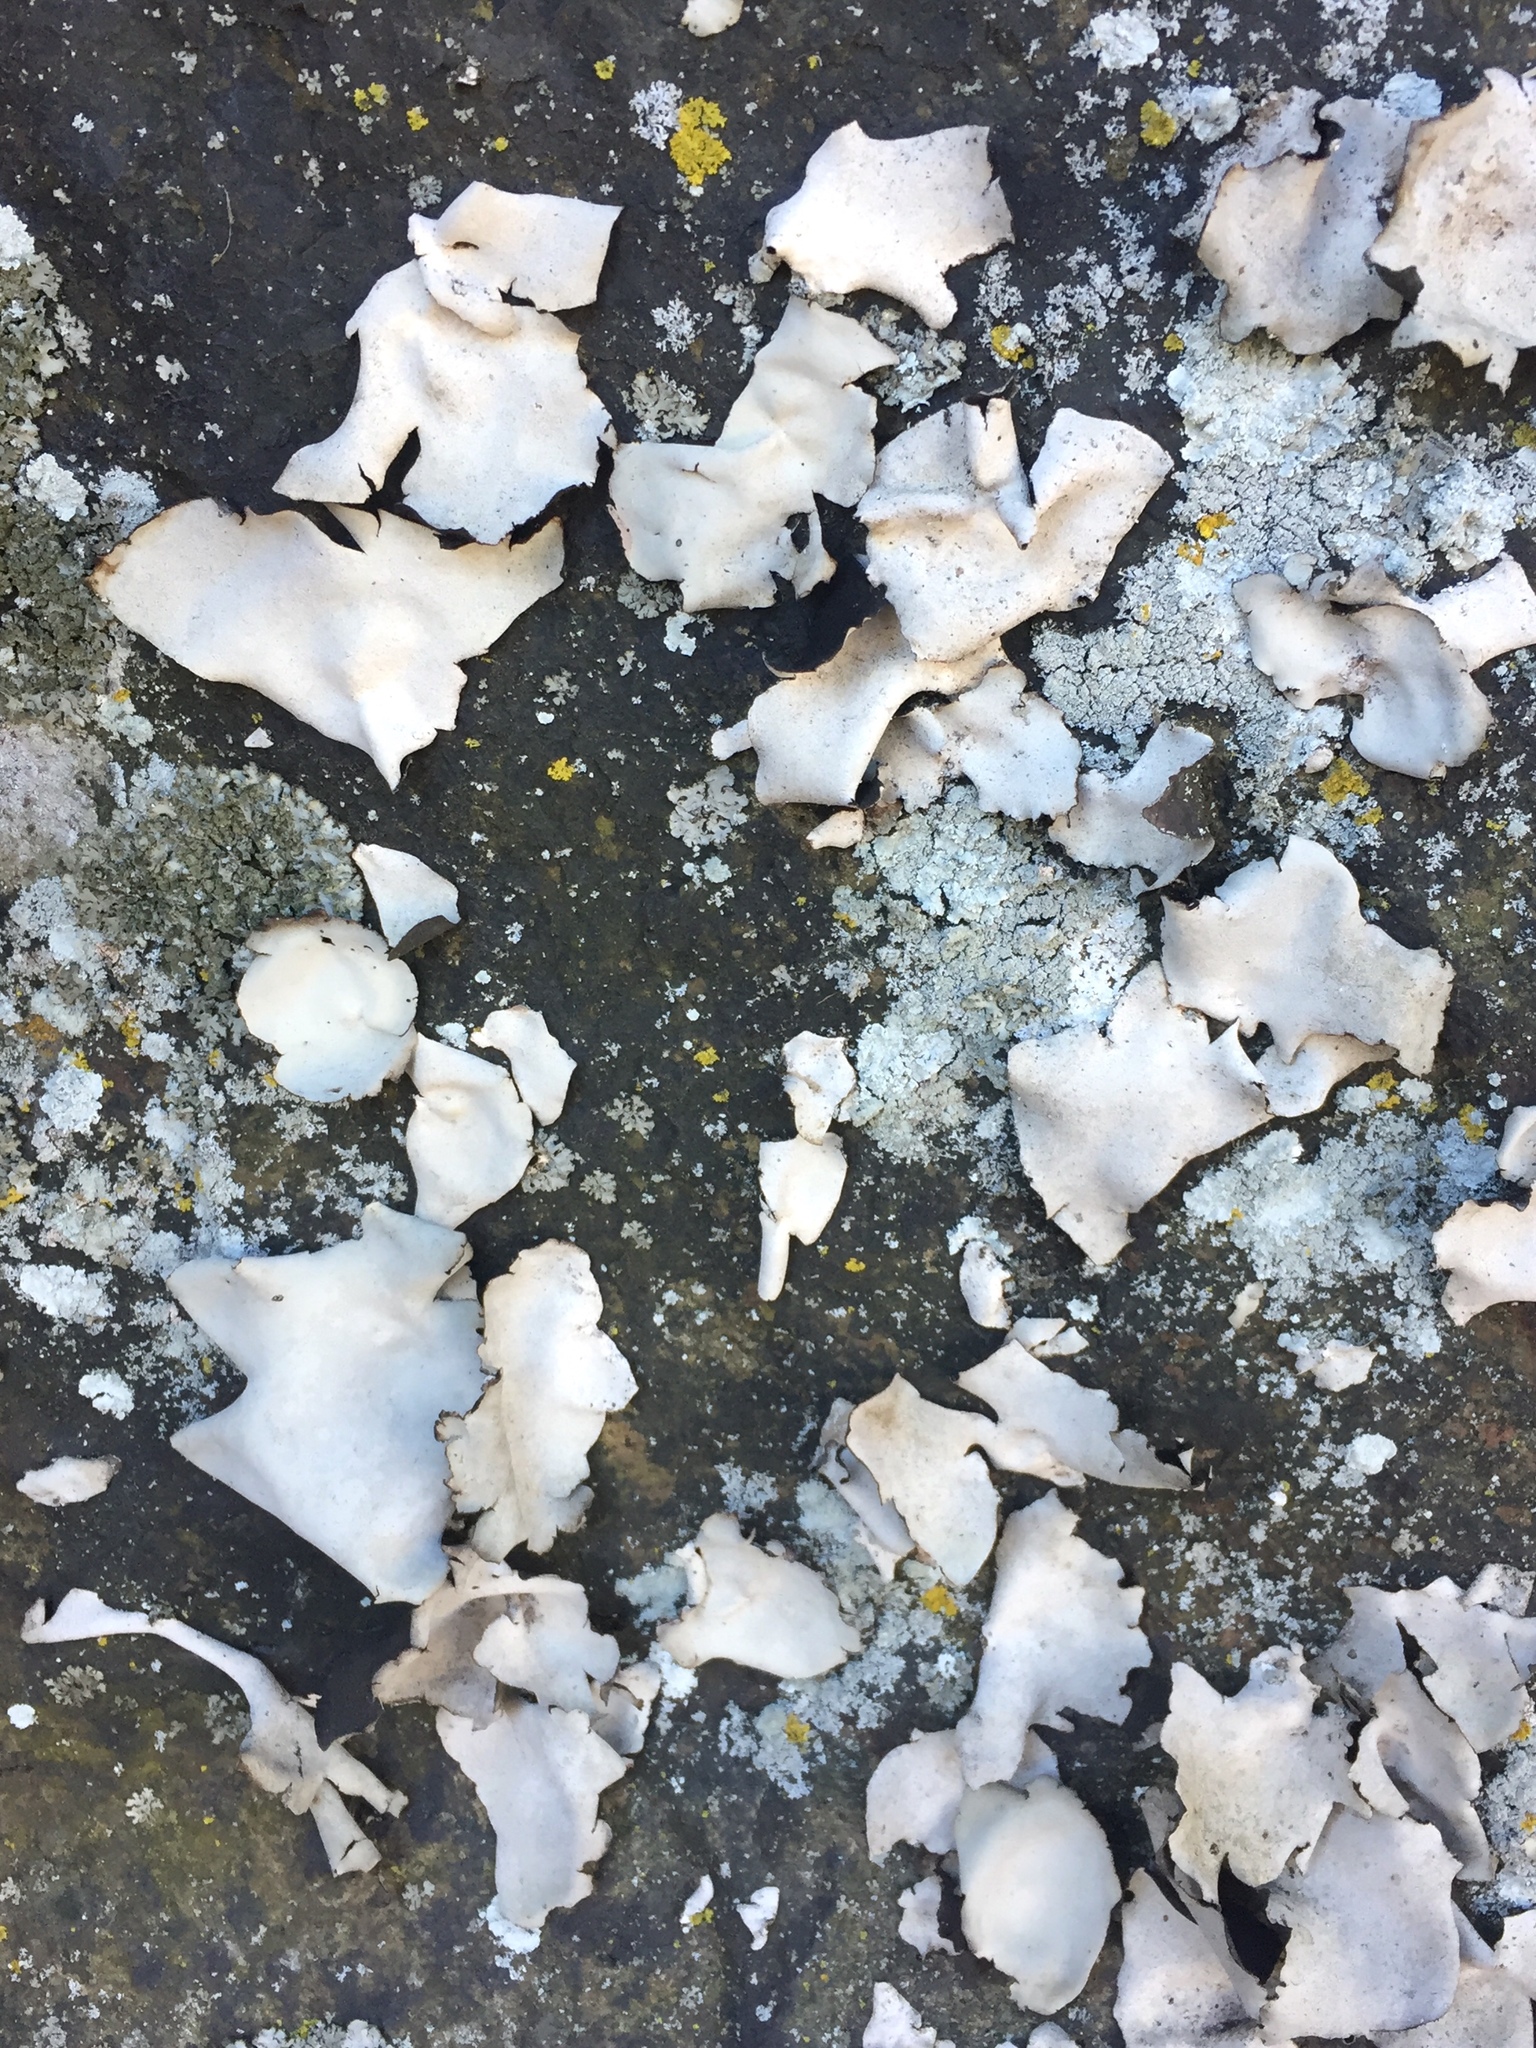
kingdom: Fungi
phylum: Ascomycota
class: Lecanoromycetes
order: Umbilicariales
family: Umbilicariaceae
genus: Umbilicaria
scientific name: Umbilicaria americana
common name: Frosted rock tripe
